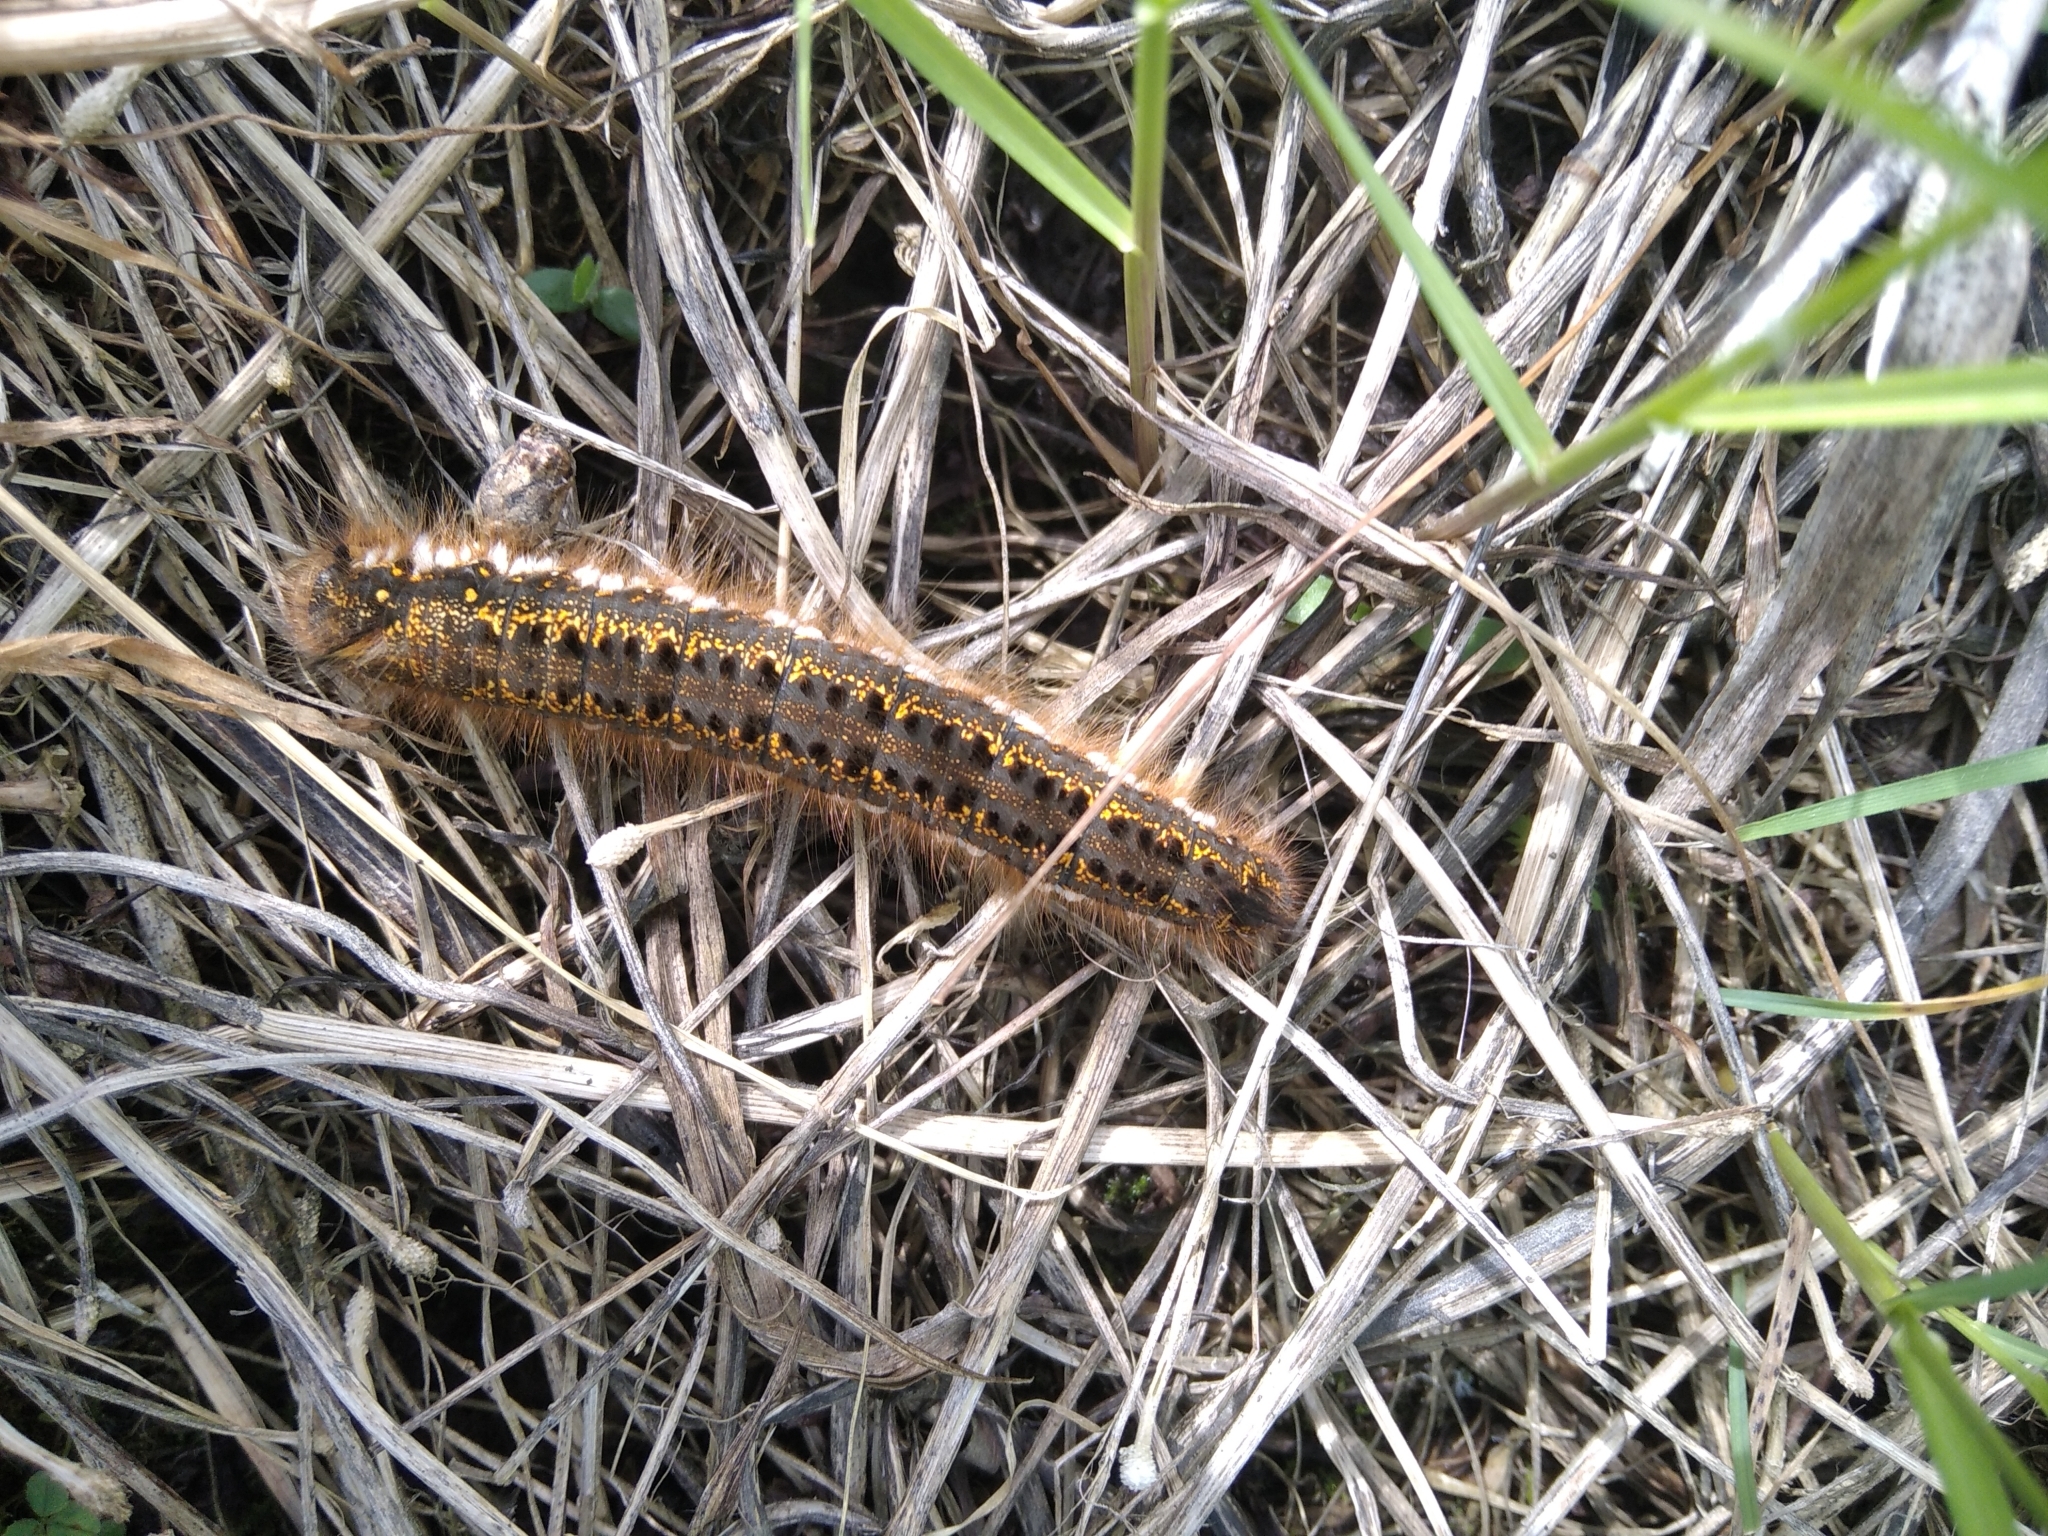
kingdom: Animalia
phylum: Arthropoda
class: Insecta
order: Lepidoptera
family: Lasiocampidae
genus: Euthrix
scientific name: Euthrix potatoria
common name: Drinker
